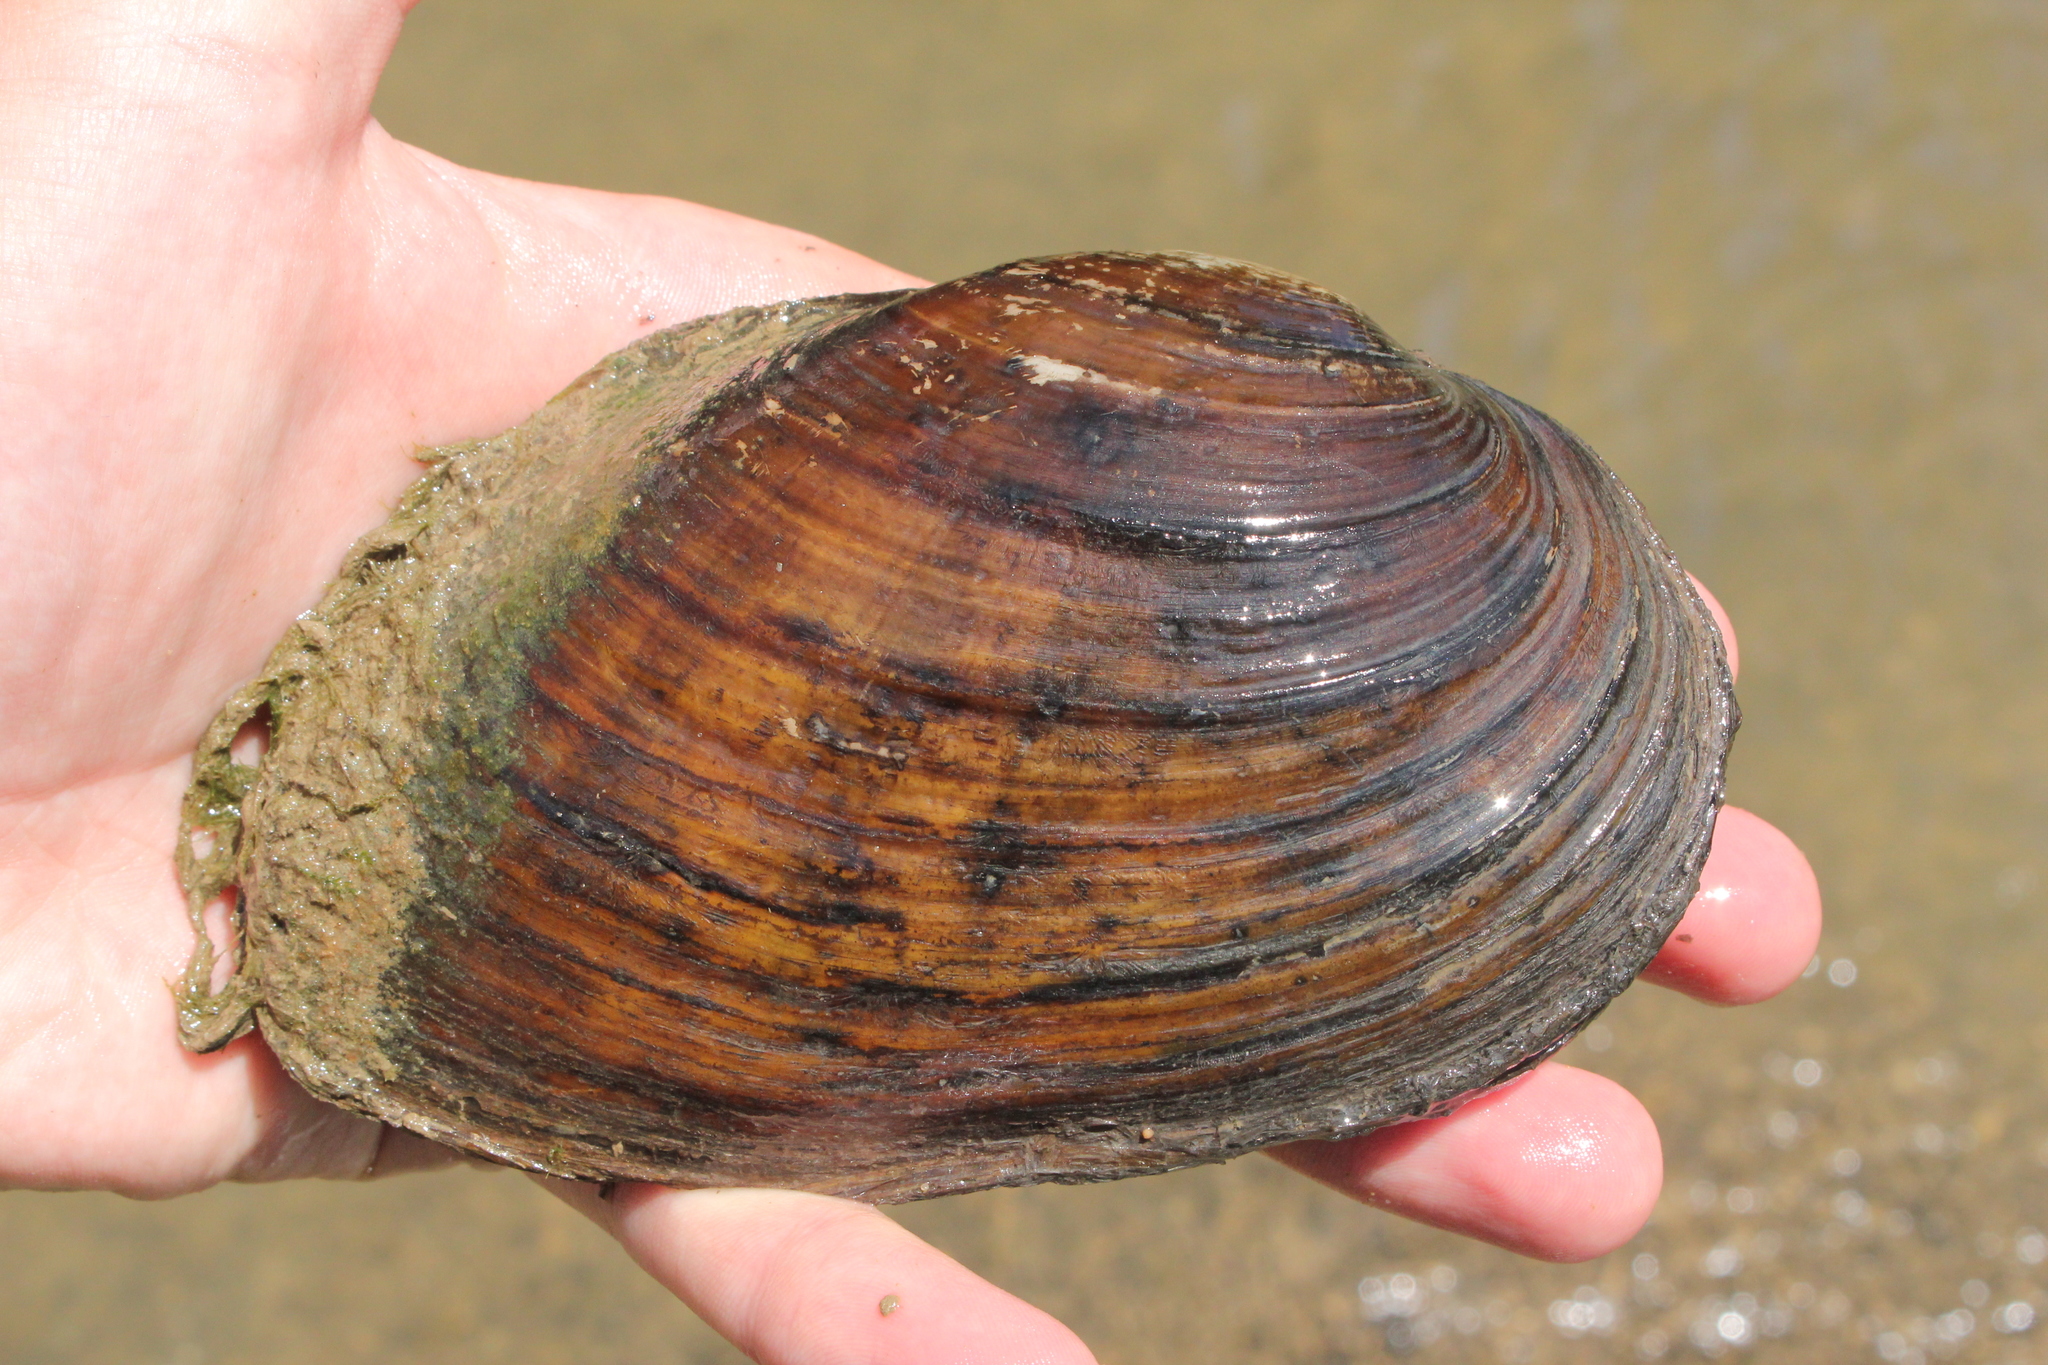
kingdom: Animalia
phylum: Mollusca
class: Bivalvia
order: Unionida
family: Unionidae
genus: Ortmanniana
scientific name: Ortmanniana ligamentina
